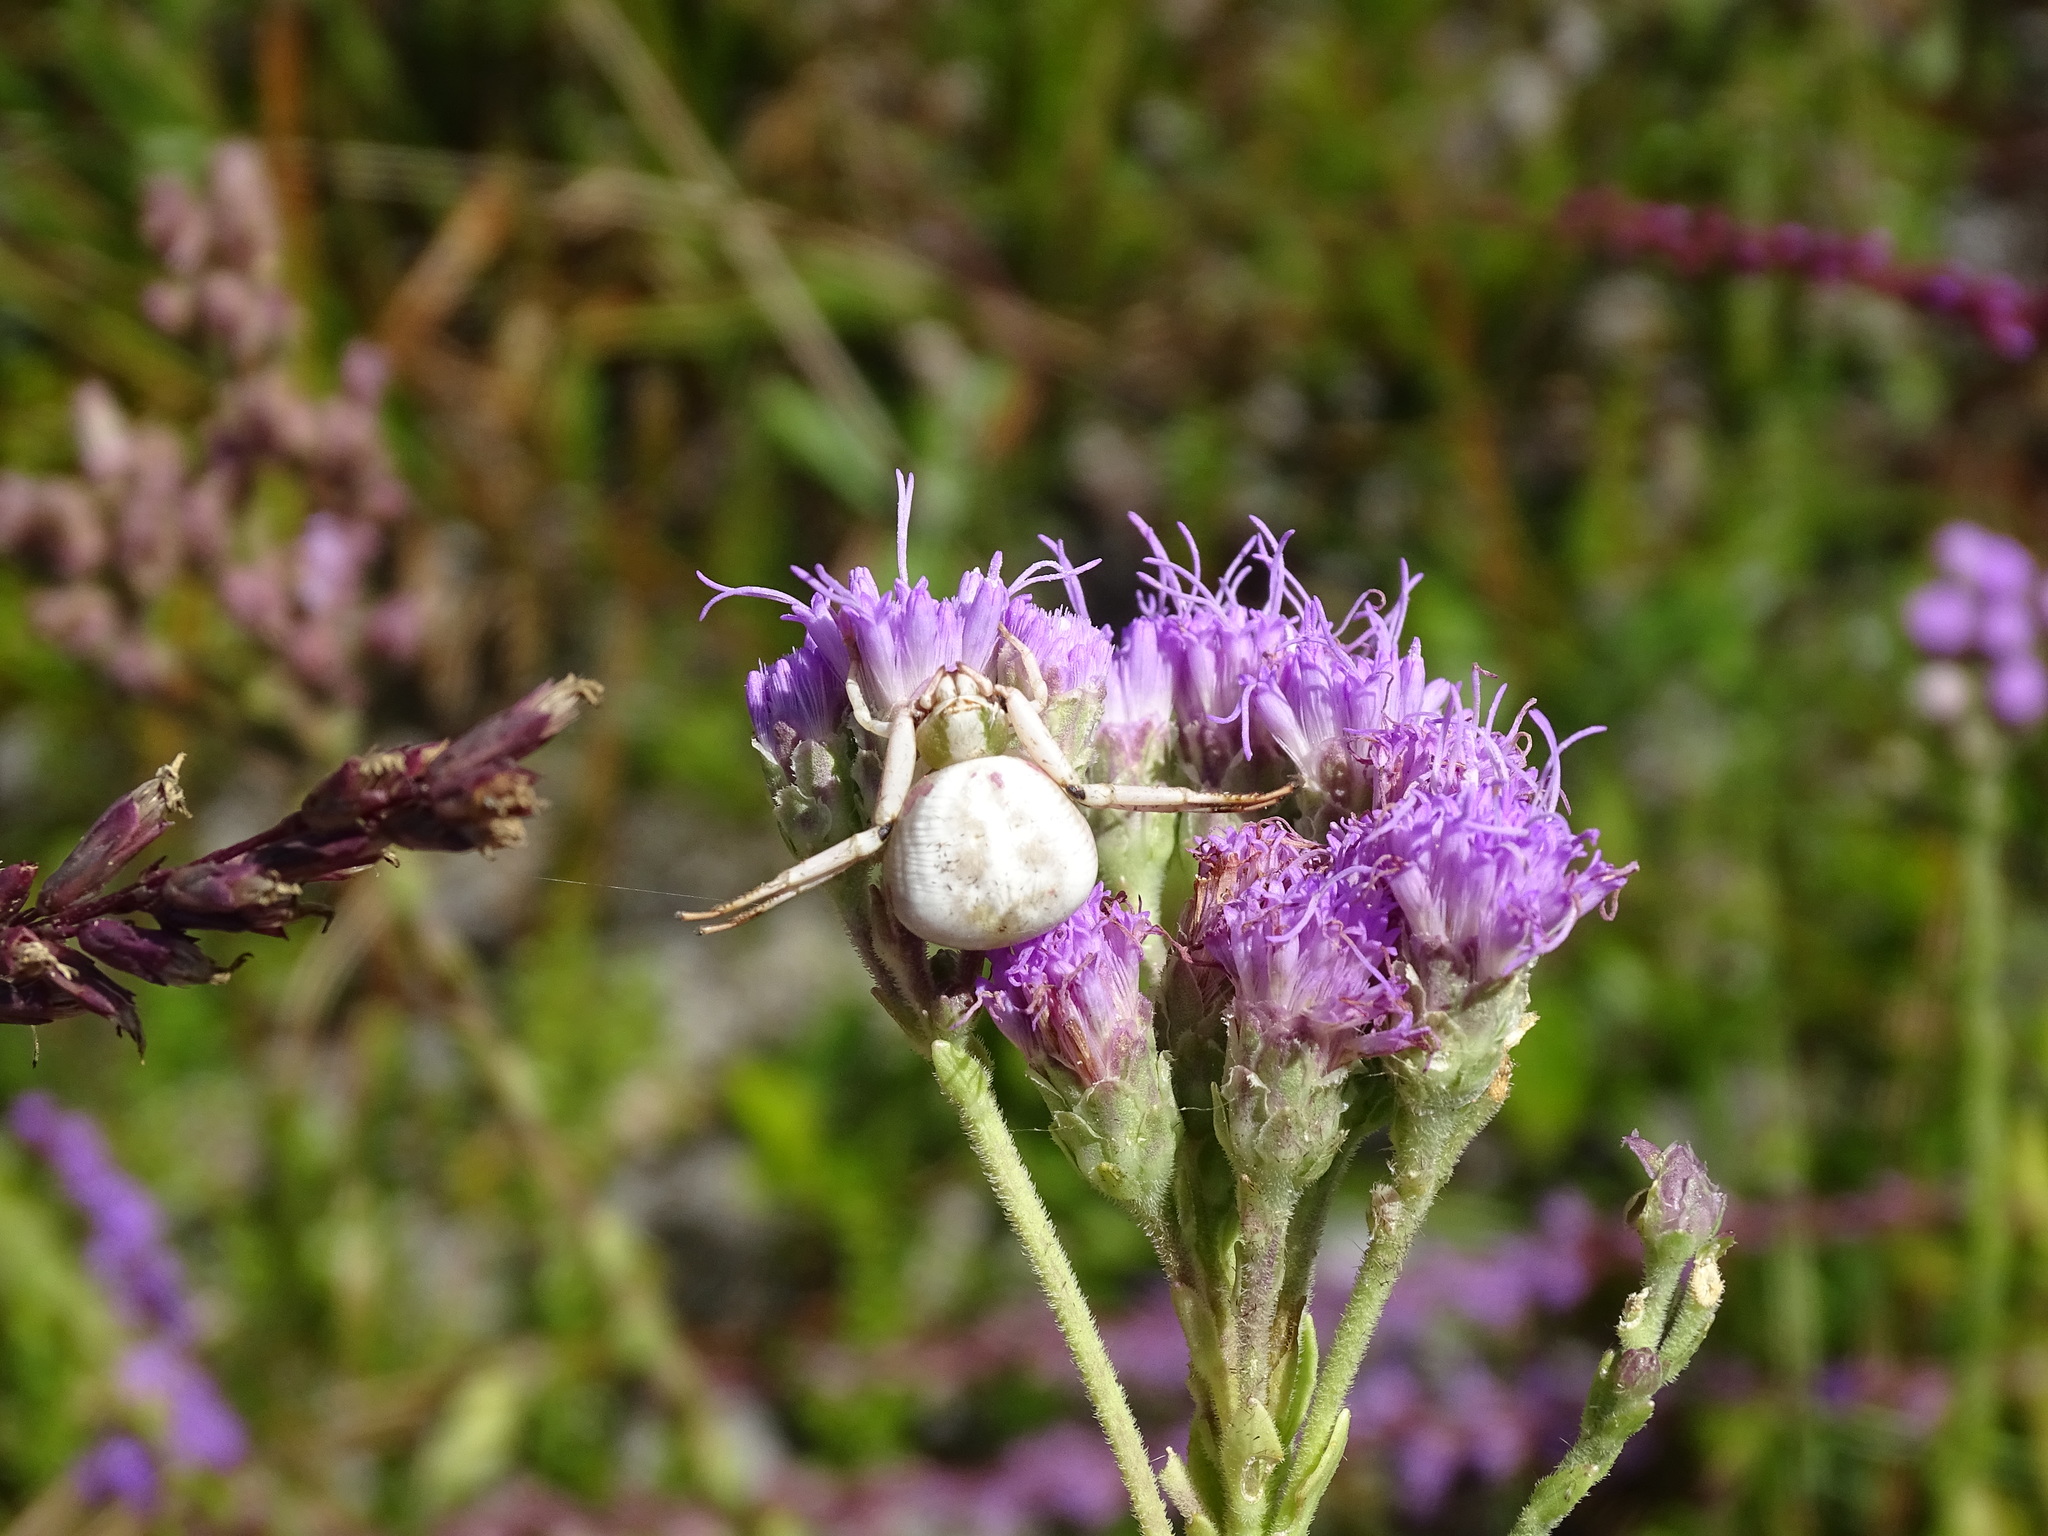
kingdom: Animalia
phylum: Arthropoda
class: Arachnida
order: Araneae
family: Thomisidae
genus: Misumenoides
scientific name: Misumenoides formosipes
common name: White-banded crab spider
